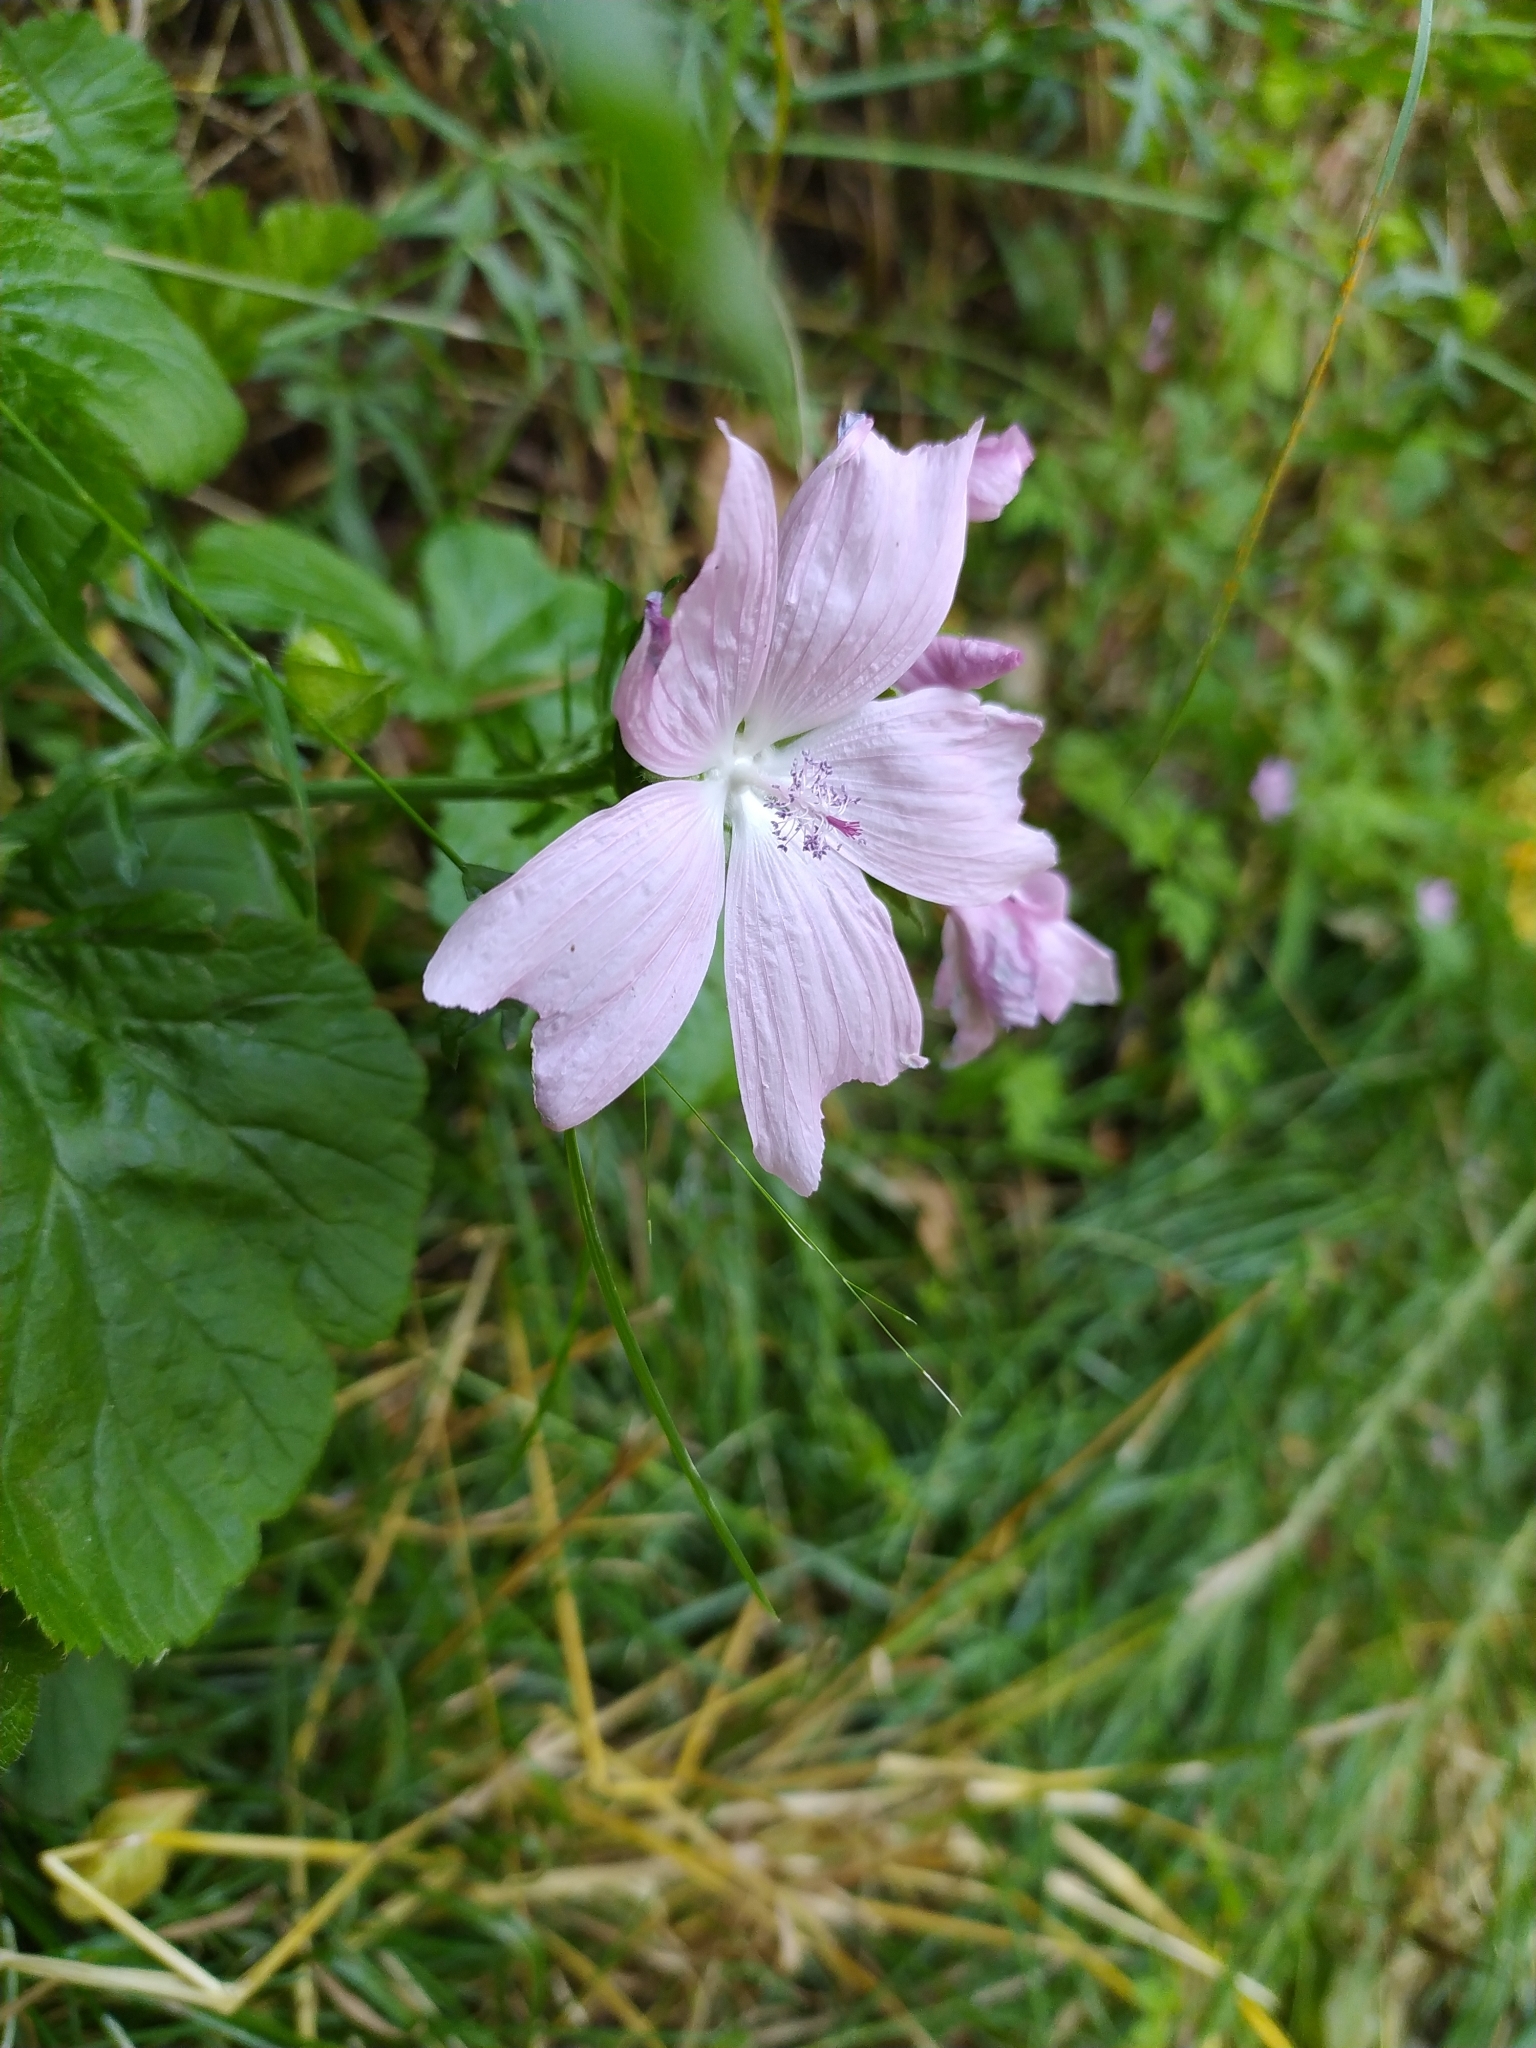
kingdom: Plantae
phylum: Tracheophyta
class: Magnoliopsida
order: Malvales
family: Malvaceae
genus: Malva
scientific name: Malva moschata
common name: Musk mallow
